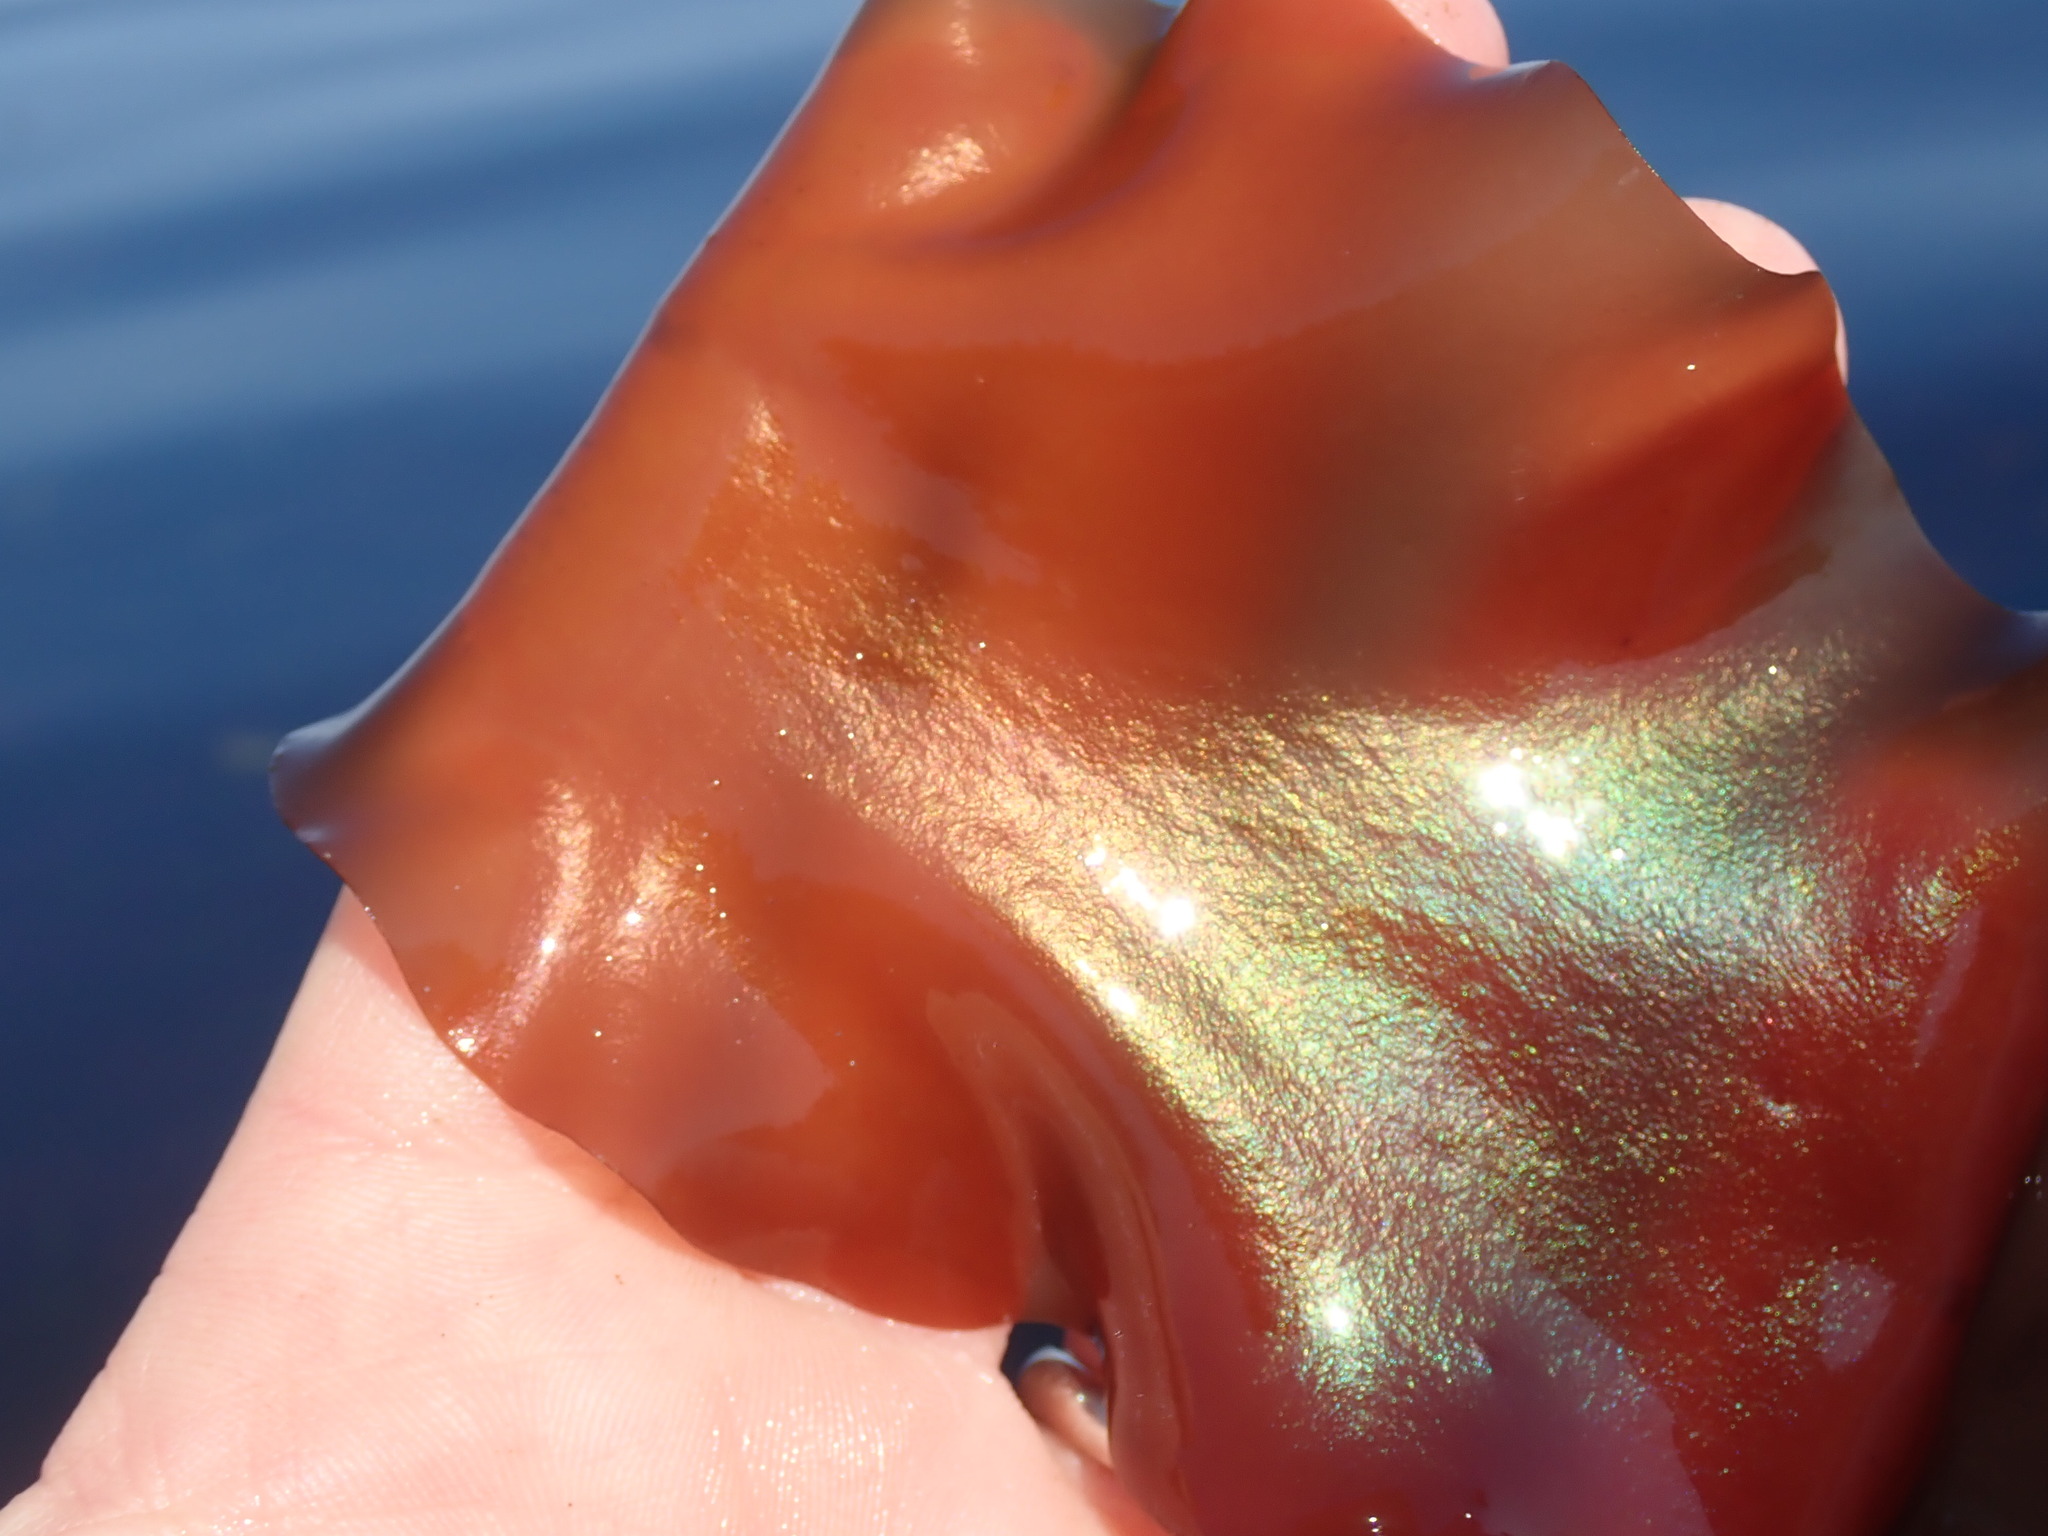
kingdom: Plantae
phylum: Rhodophyta
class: Florideophyceae
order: Gigartinales
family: Gigartinaceae
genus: Mazzaella
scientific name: Mazzaella splendens
